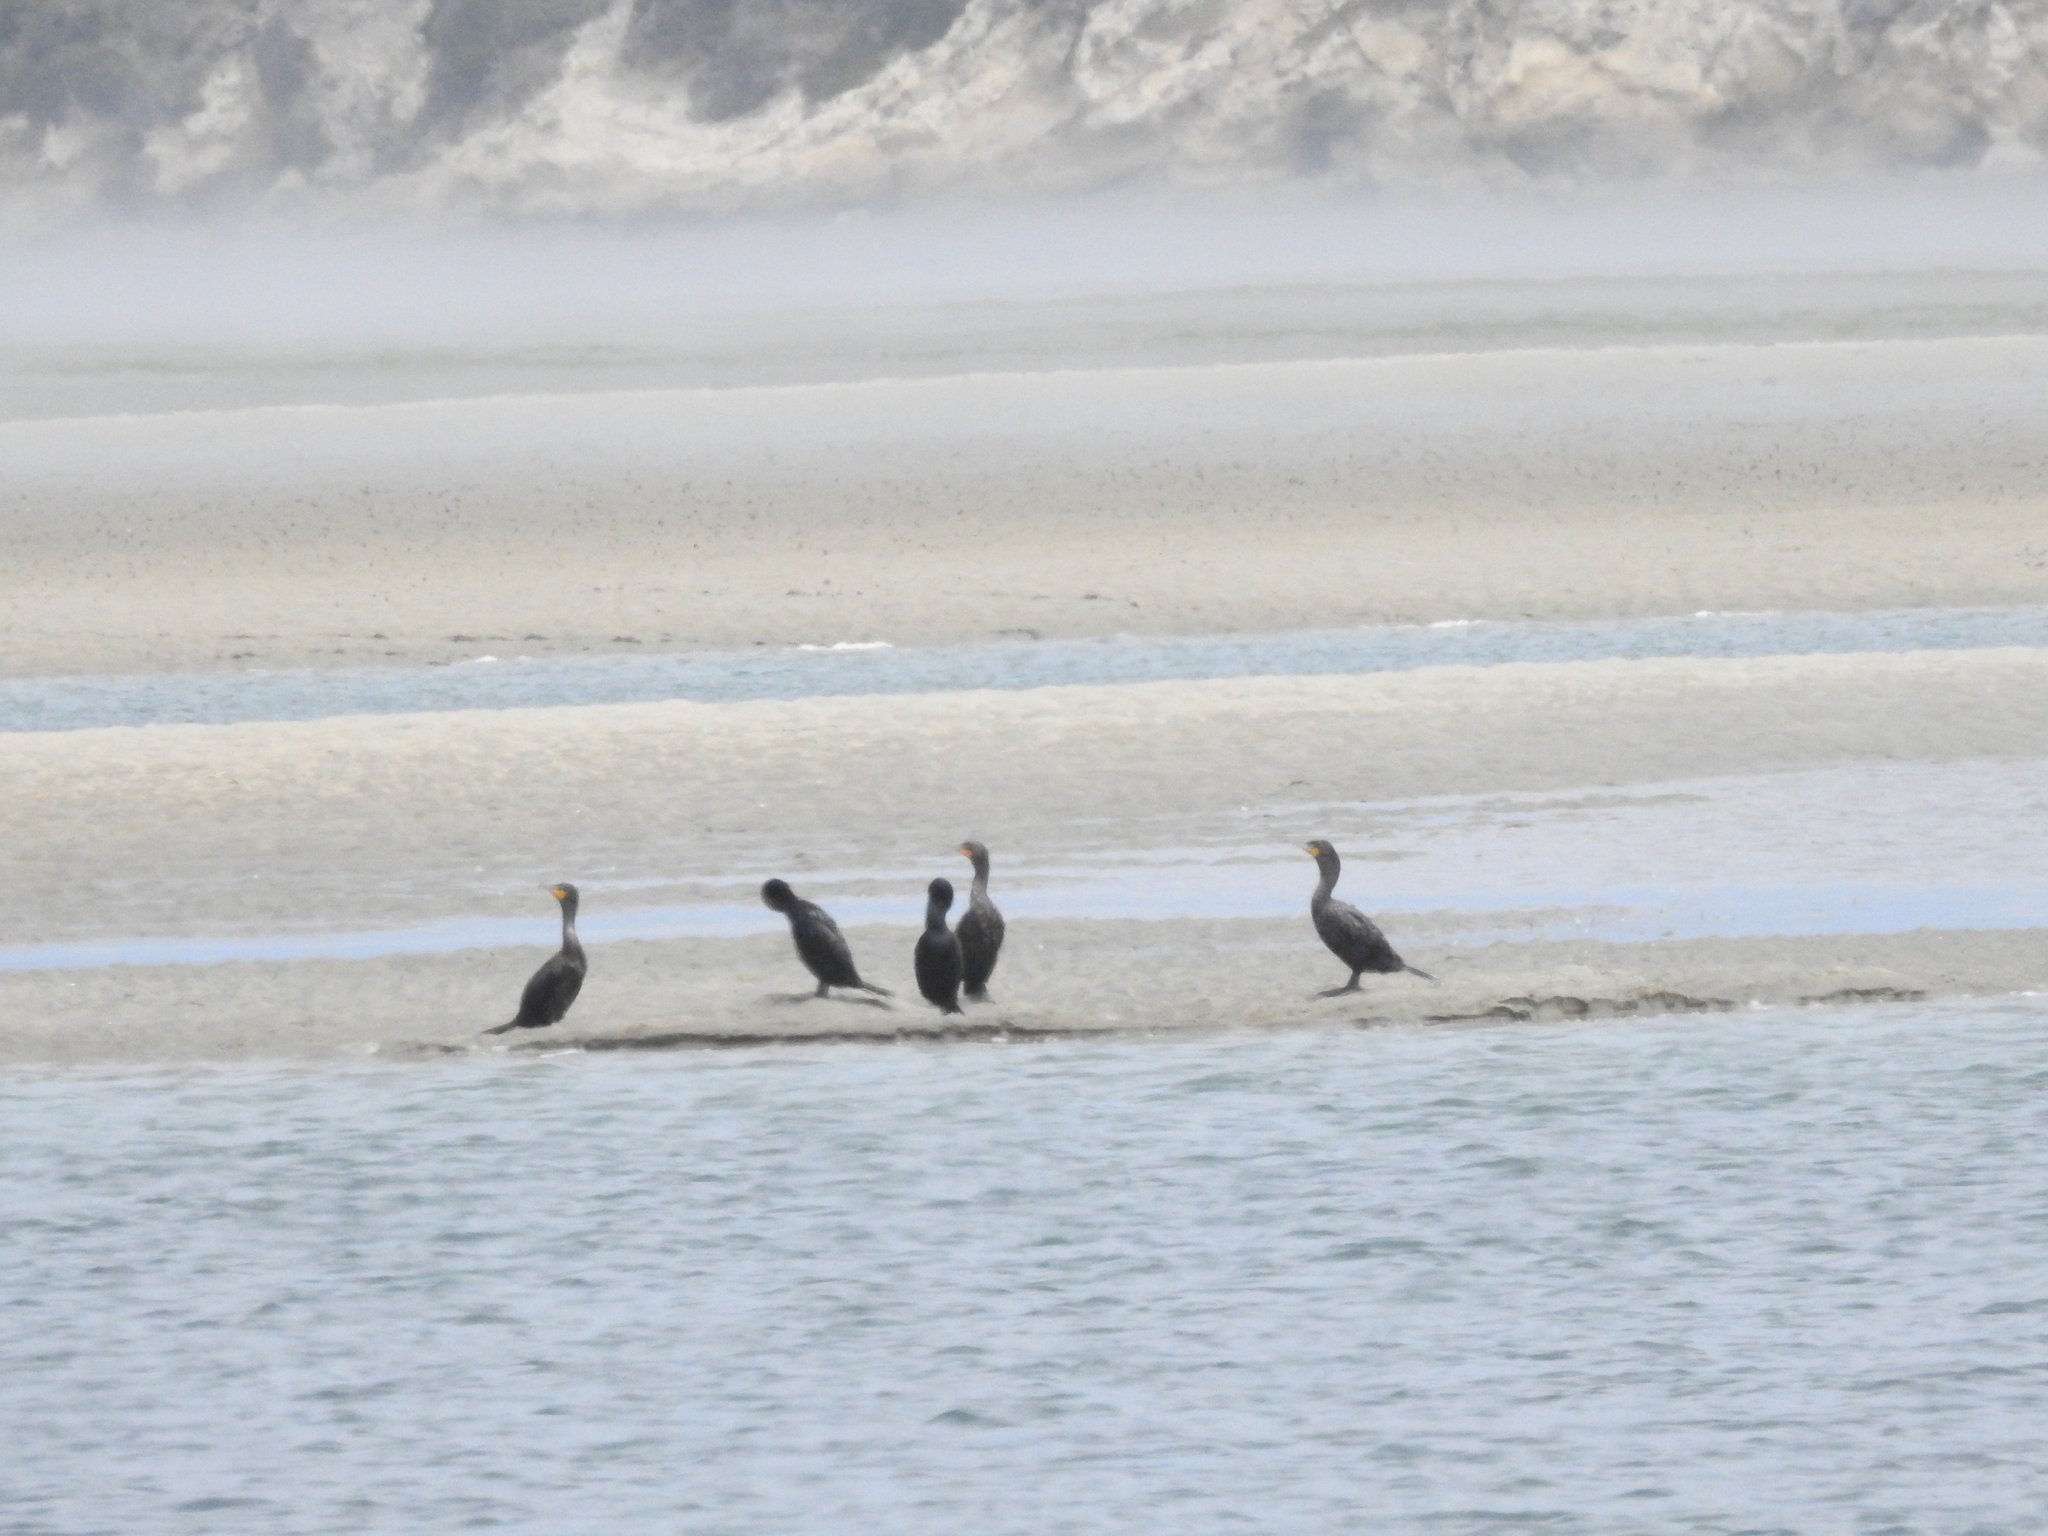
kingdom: Animalia
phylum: Chordata
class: Aves
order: Suliformes
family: Phalacrocoracidae
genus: Phalacrocorax
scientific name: Phalacrocorax auritus
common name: Double-crested cormorant
